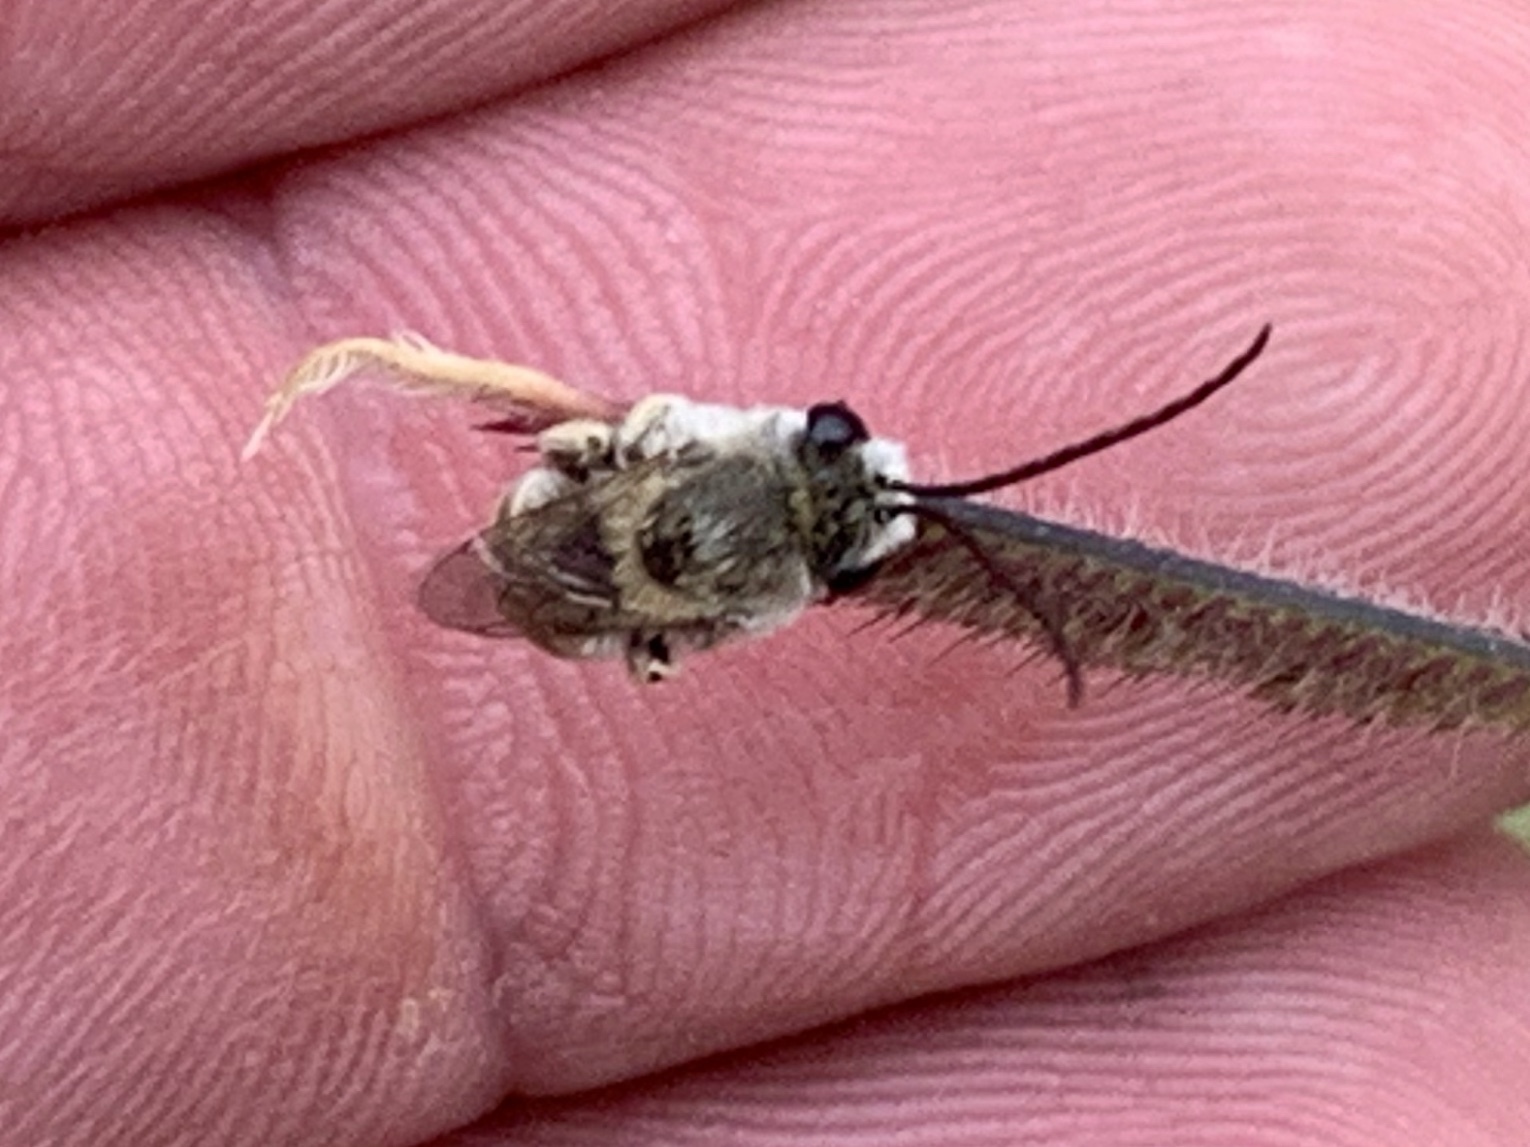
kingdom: Animalia
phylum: Arthropoda
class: Insecta
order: Hymenoptera
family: Apidae
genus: Apidae
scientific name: Apidae
